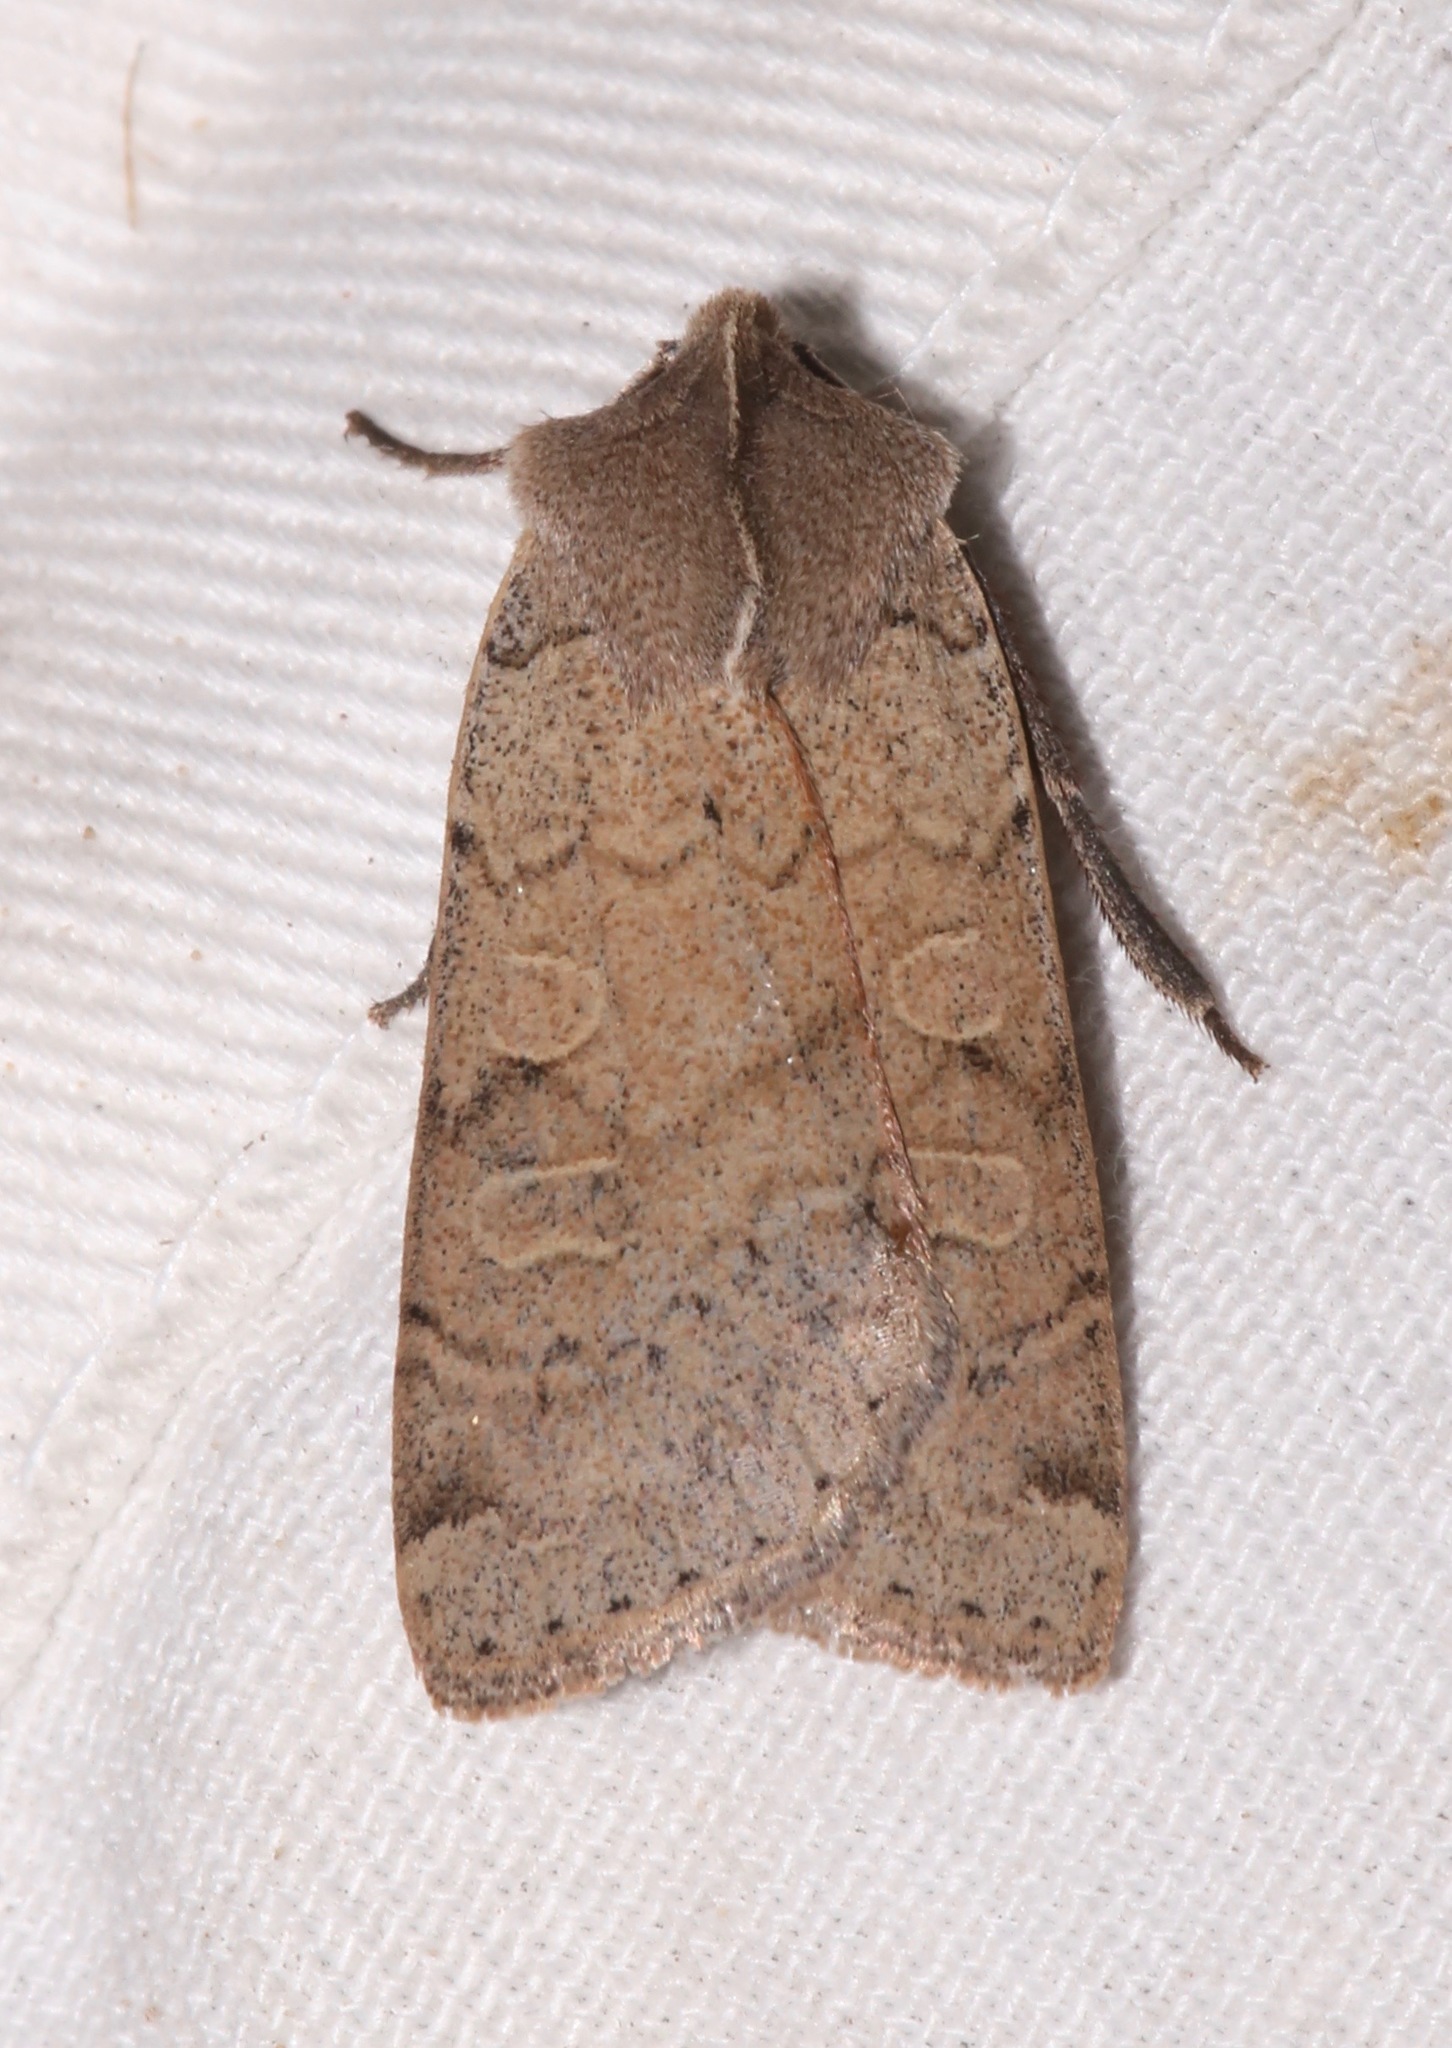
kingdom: Animalia
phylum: Arthropoda
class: Insecta
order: Lepidoptera
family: Noctuidae
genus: Richia
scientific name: Richia chortalis
